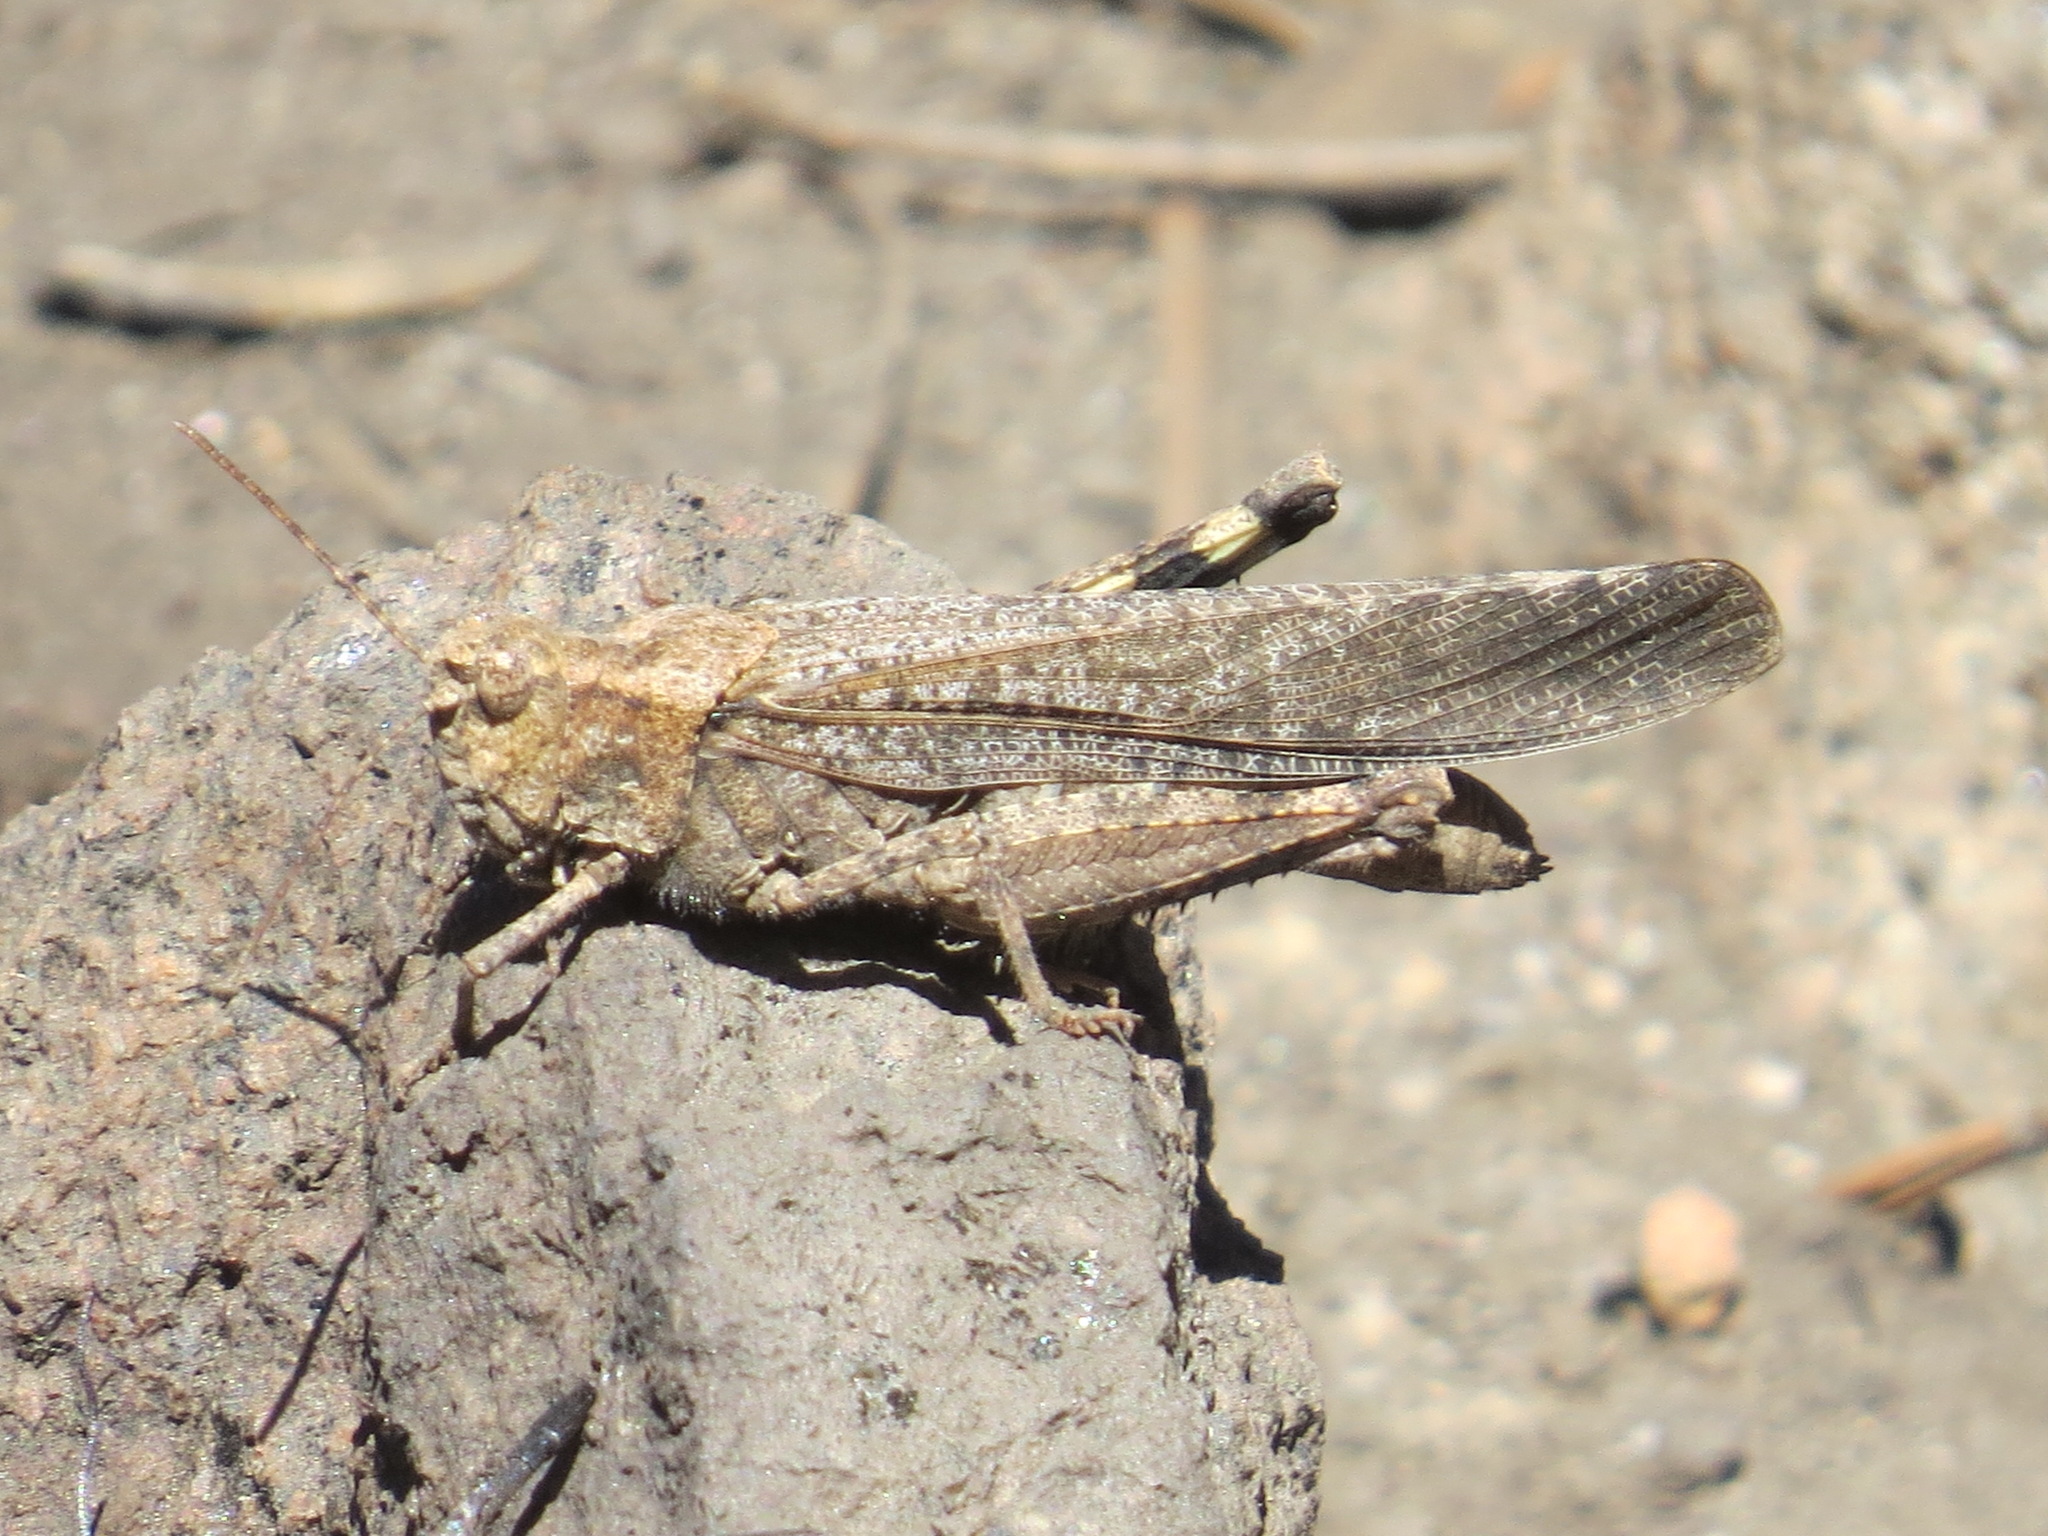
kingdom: Animalia
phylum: Arthropoda
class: Insecta
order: Orthoptera
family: Acrididae
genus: Trimerotropis
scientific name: Trimerotropis verruculata
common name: Crackling forest grasshopper
